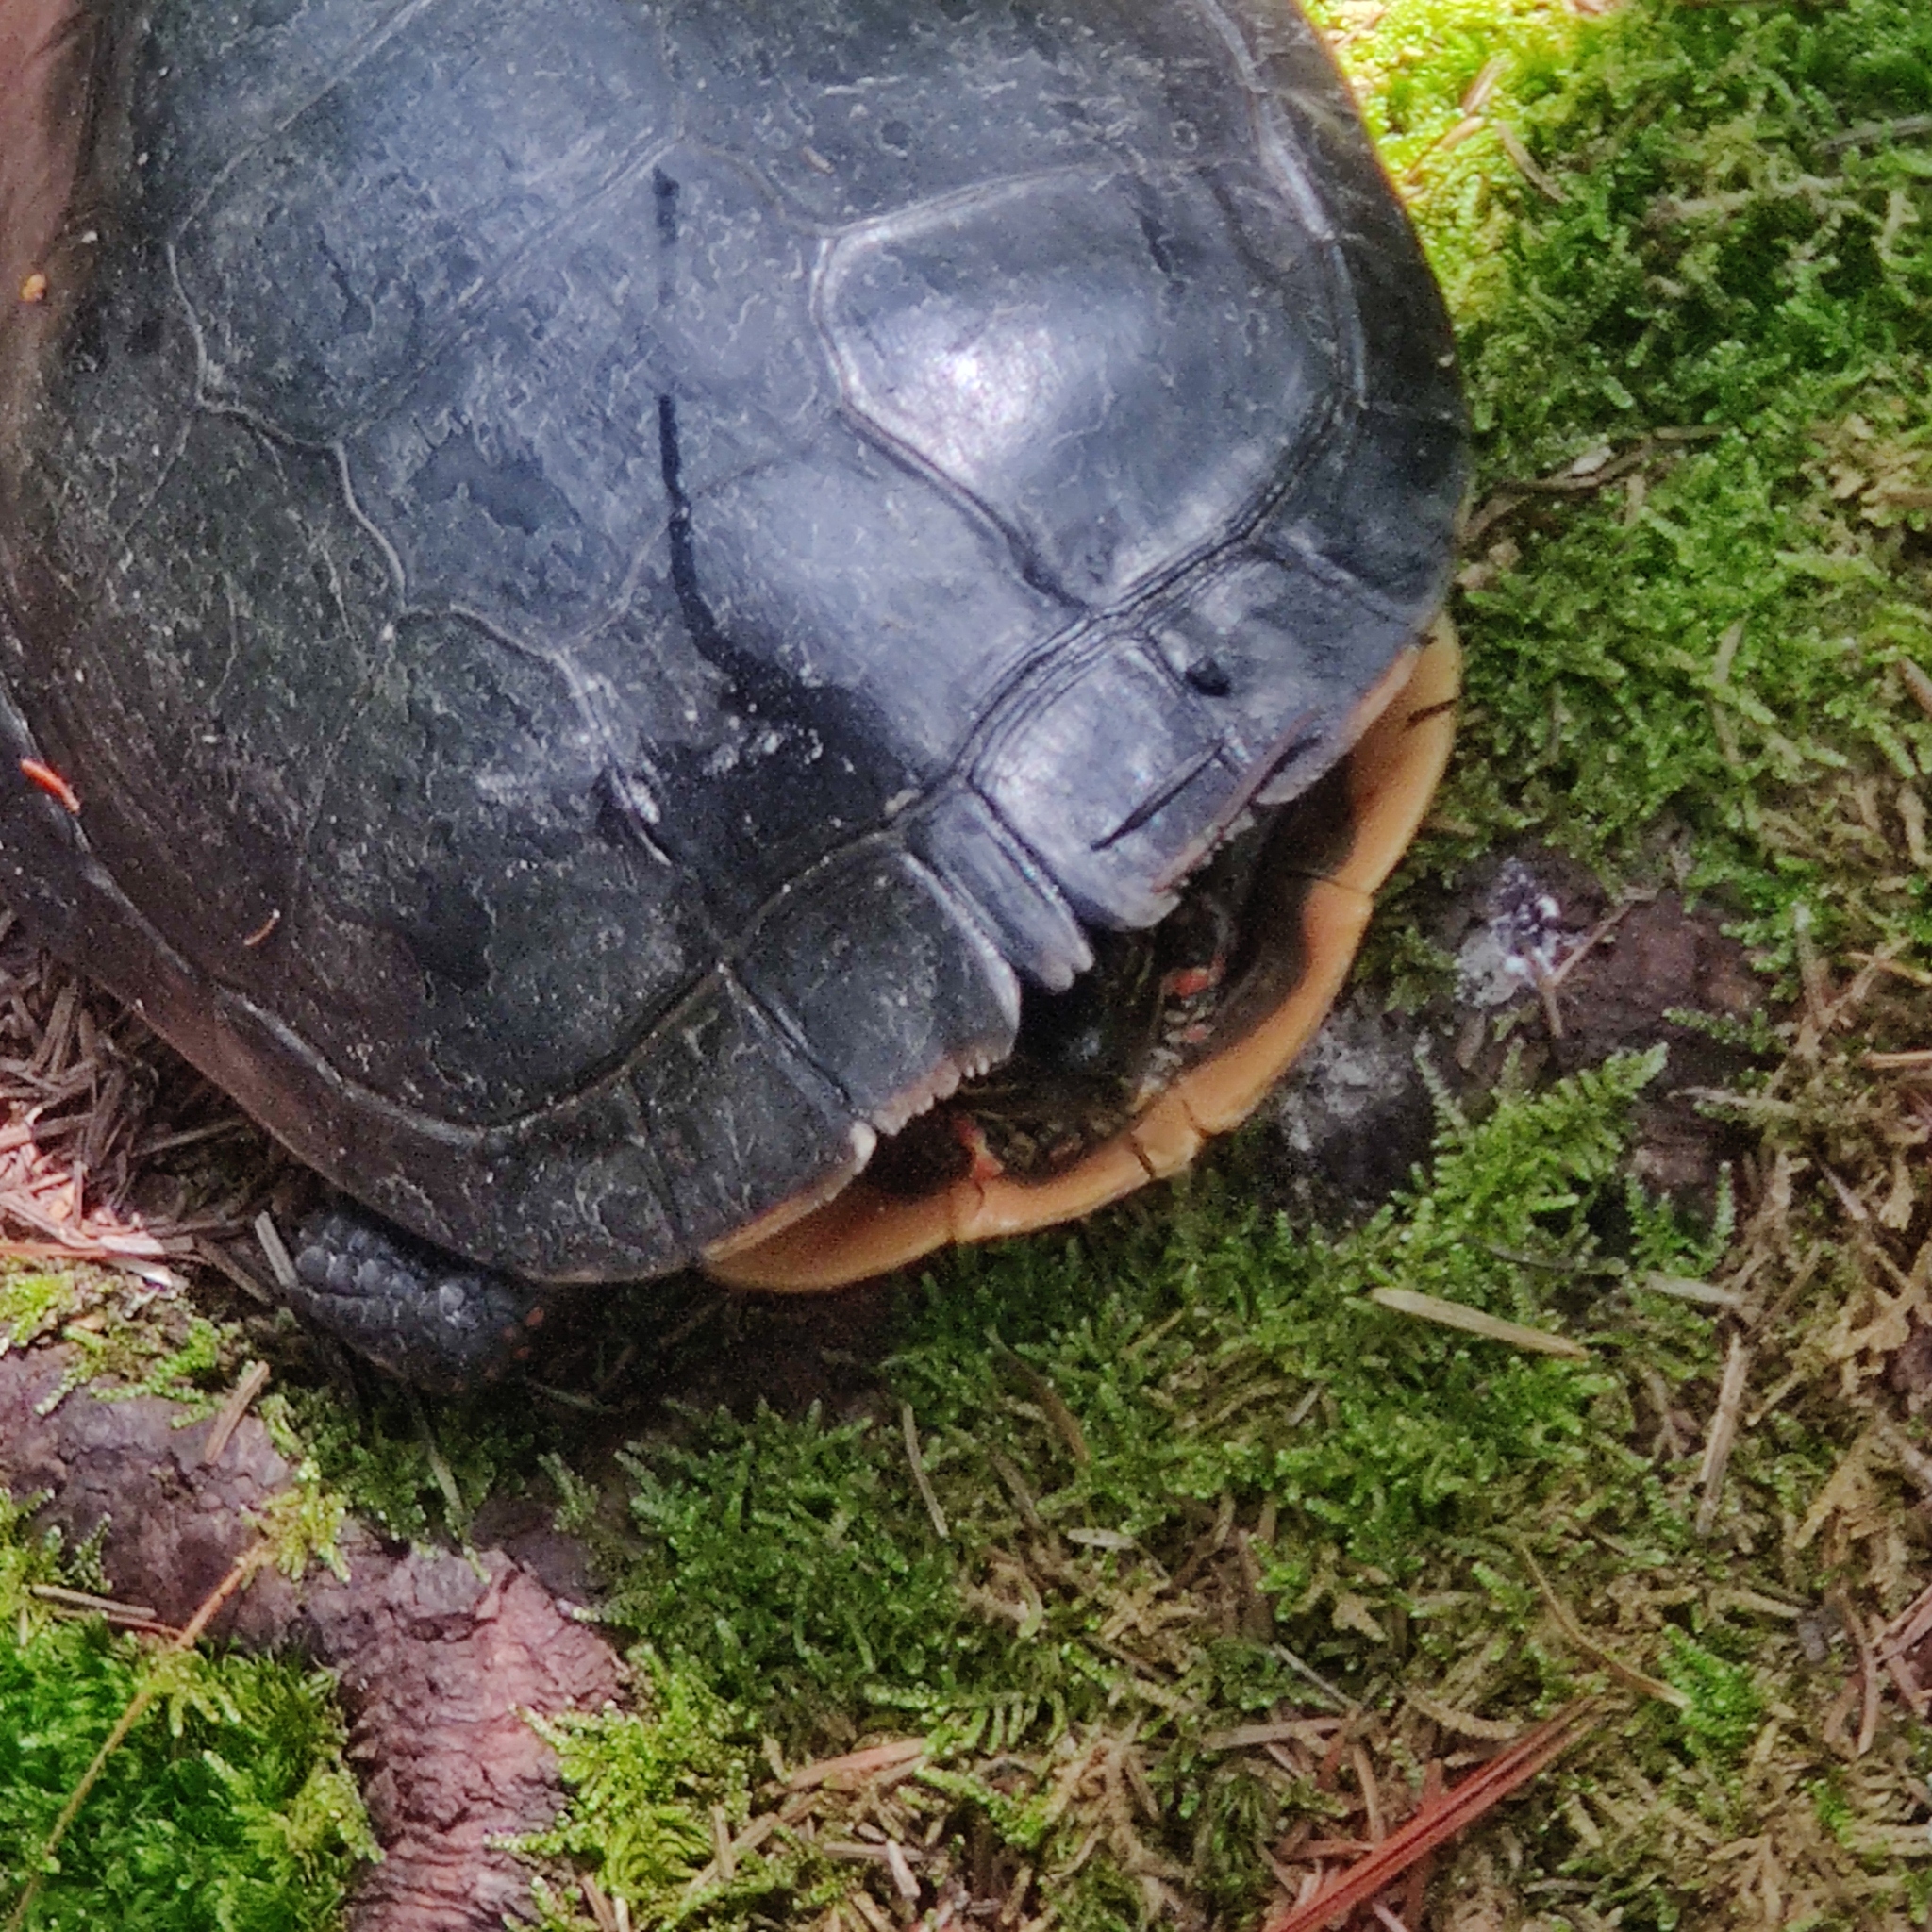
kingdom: Animalia
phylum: Chordata
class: Testudines
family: Emydidae
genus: Chrysemys
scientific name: Chrysemys picta
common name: Painted turtle
